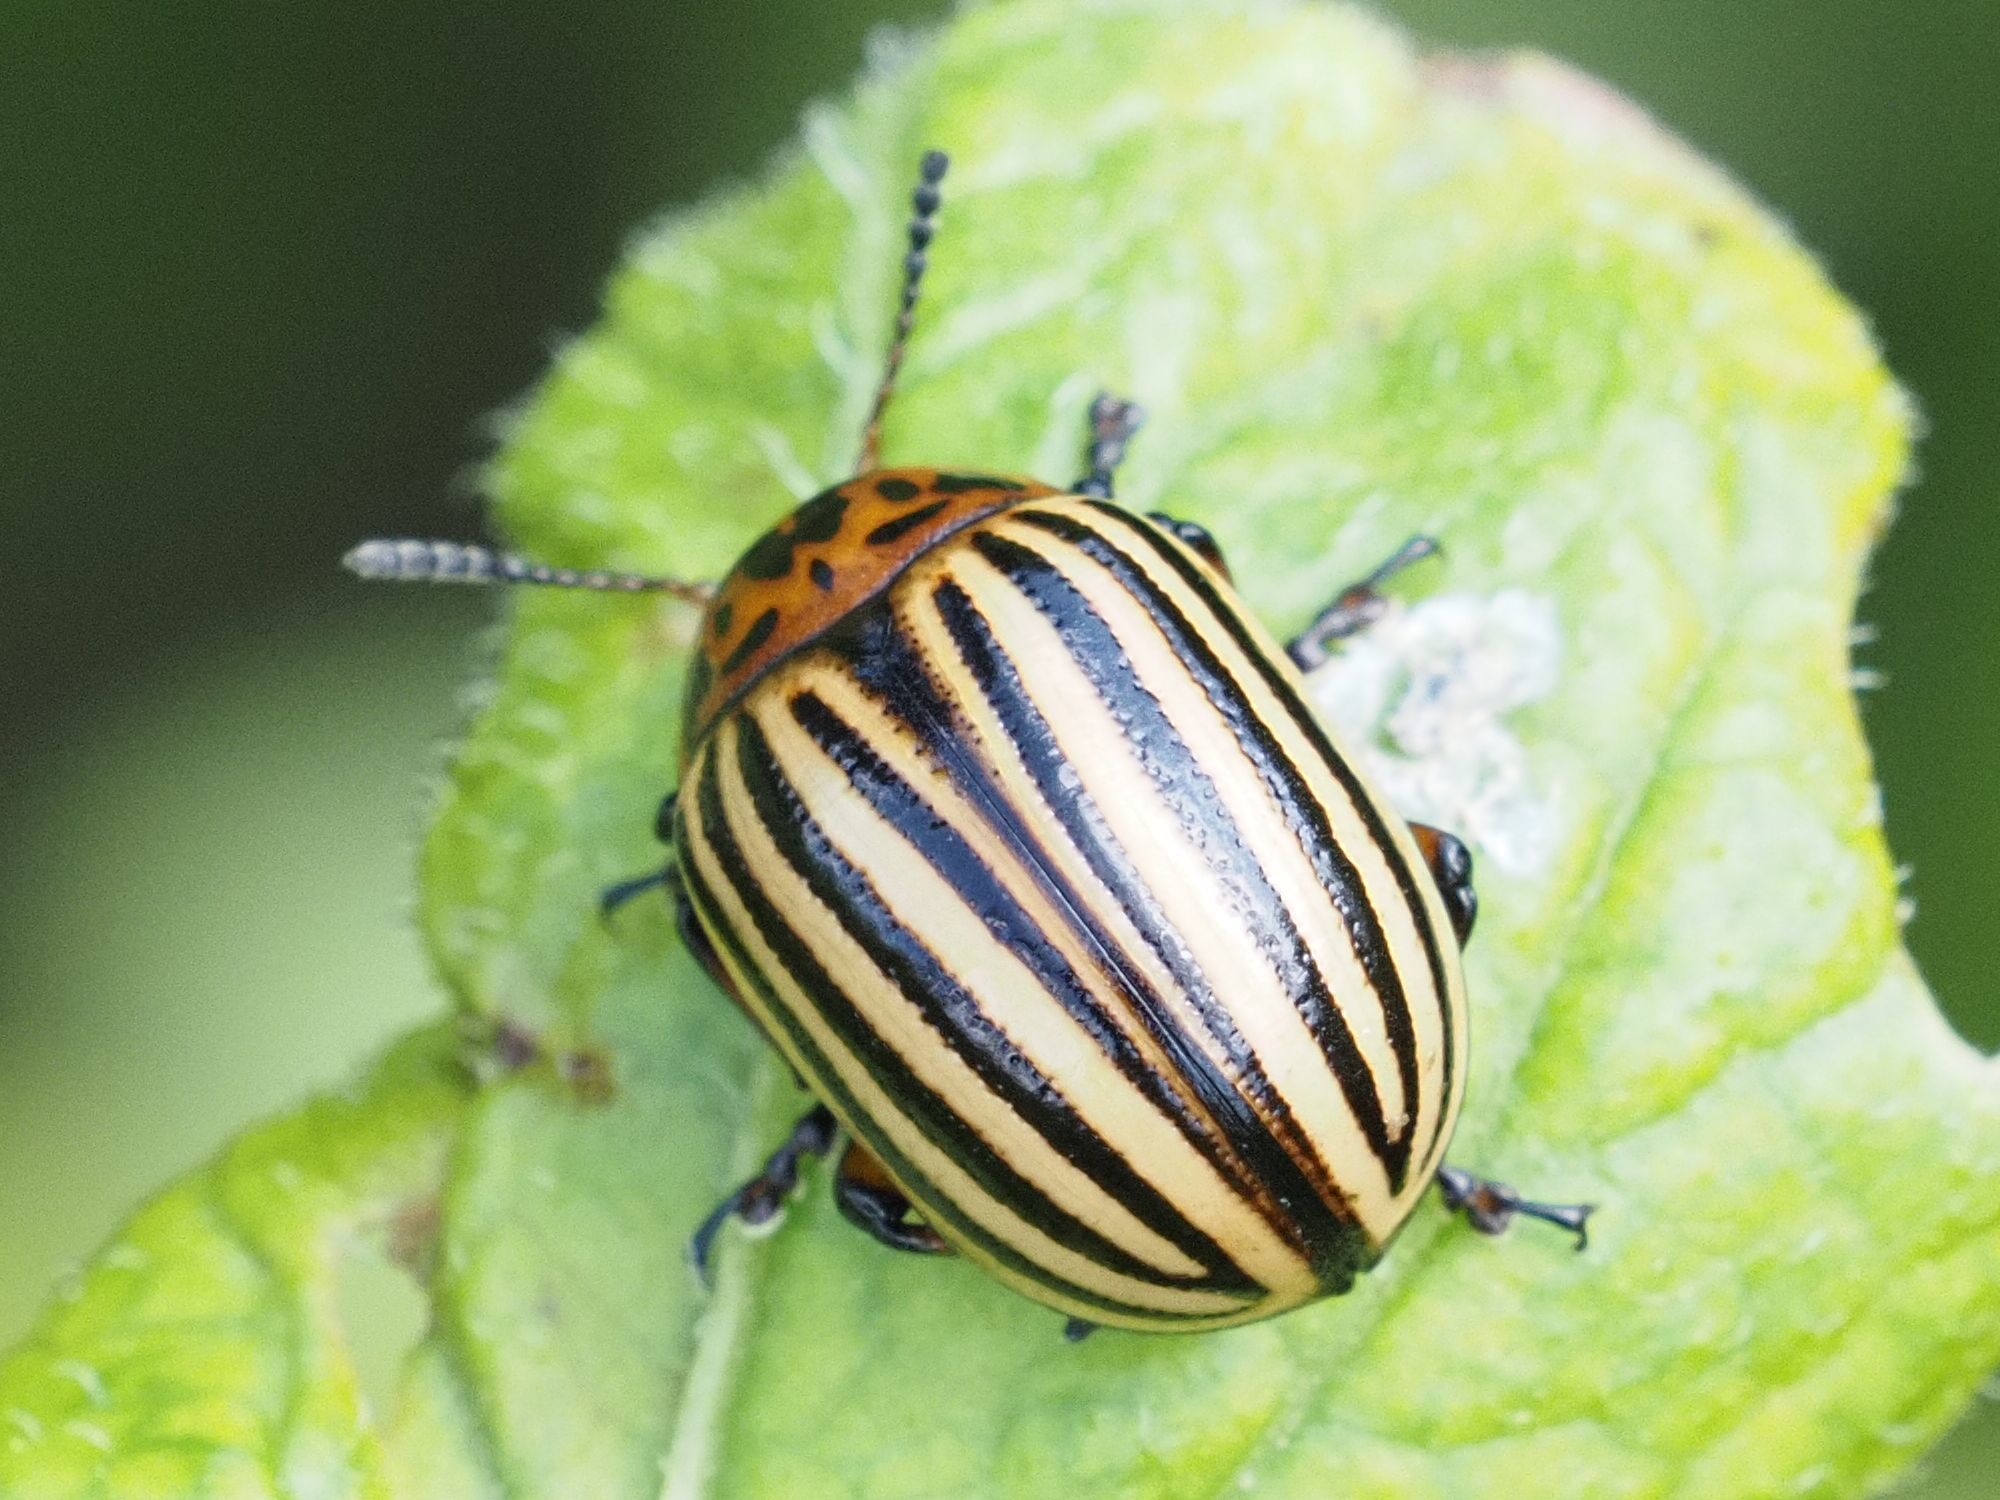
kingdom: Animalia
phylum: Arthropoda
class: Insecta
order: Coleoptera
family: Chrysomelidae
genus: Leptinotarsa
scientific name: Leptinotarsa decemlineata
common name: Colorado potato beetle
